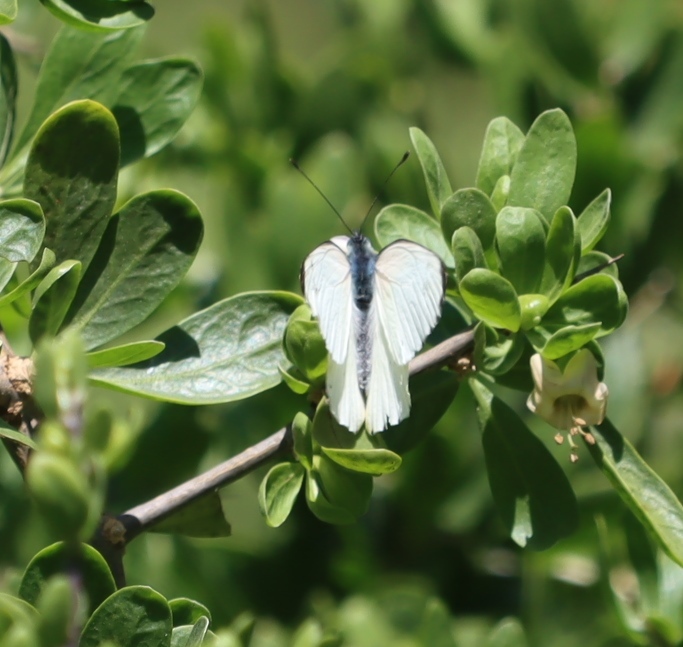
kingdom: Animalia
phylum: Arthropoda
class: Insecta
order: Lepidoptera
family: Pieridae
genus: Mylothris
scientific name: Mylothris agathina
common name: Eastern dotted border
